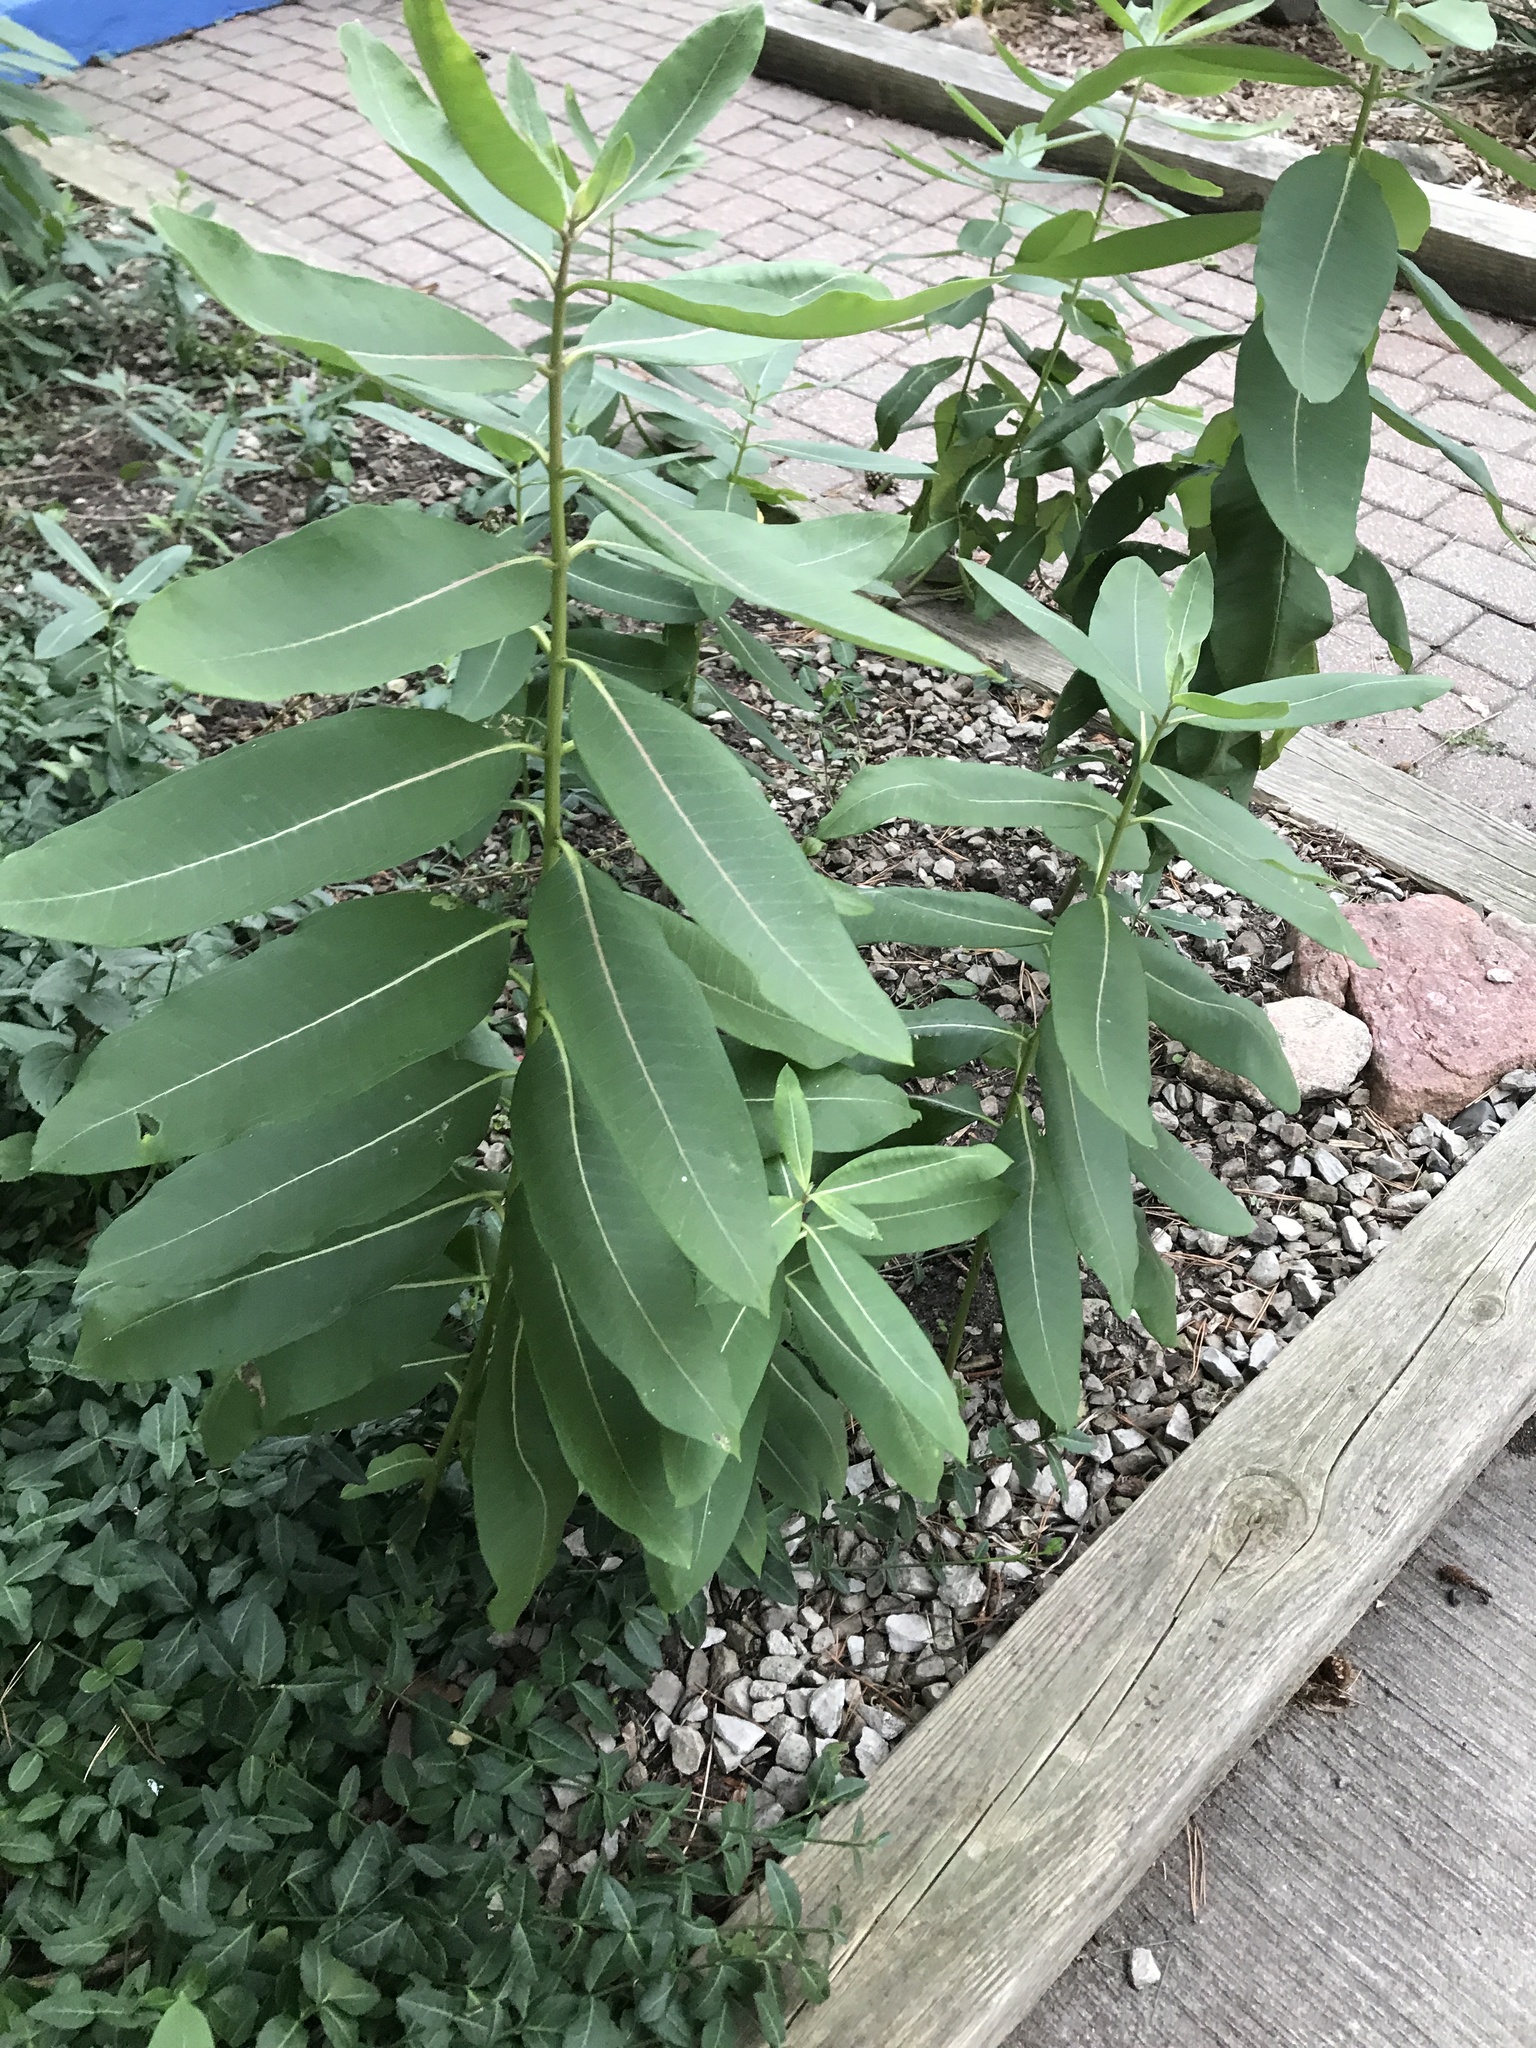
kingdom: Plantae
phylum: Tracheophyta
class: Magnoliopsida
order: Gentianales
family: Apocynaceae
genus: Asclepias
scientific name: Asclepias syriaca
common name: Common milkweed
